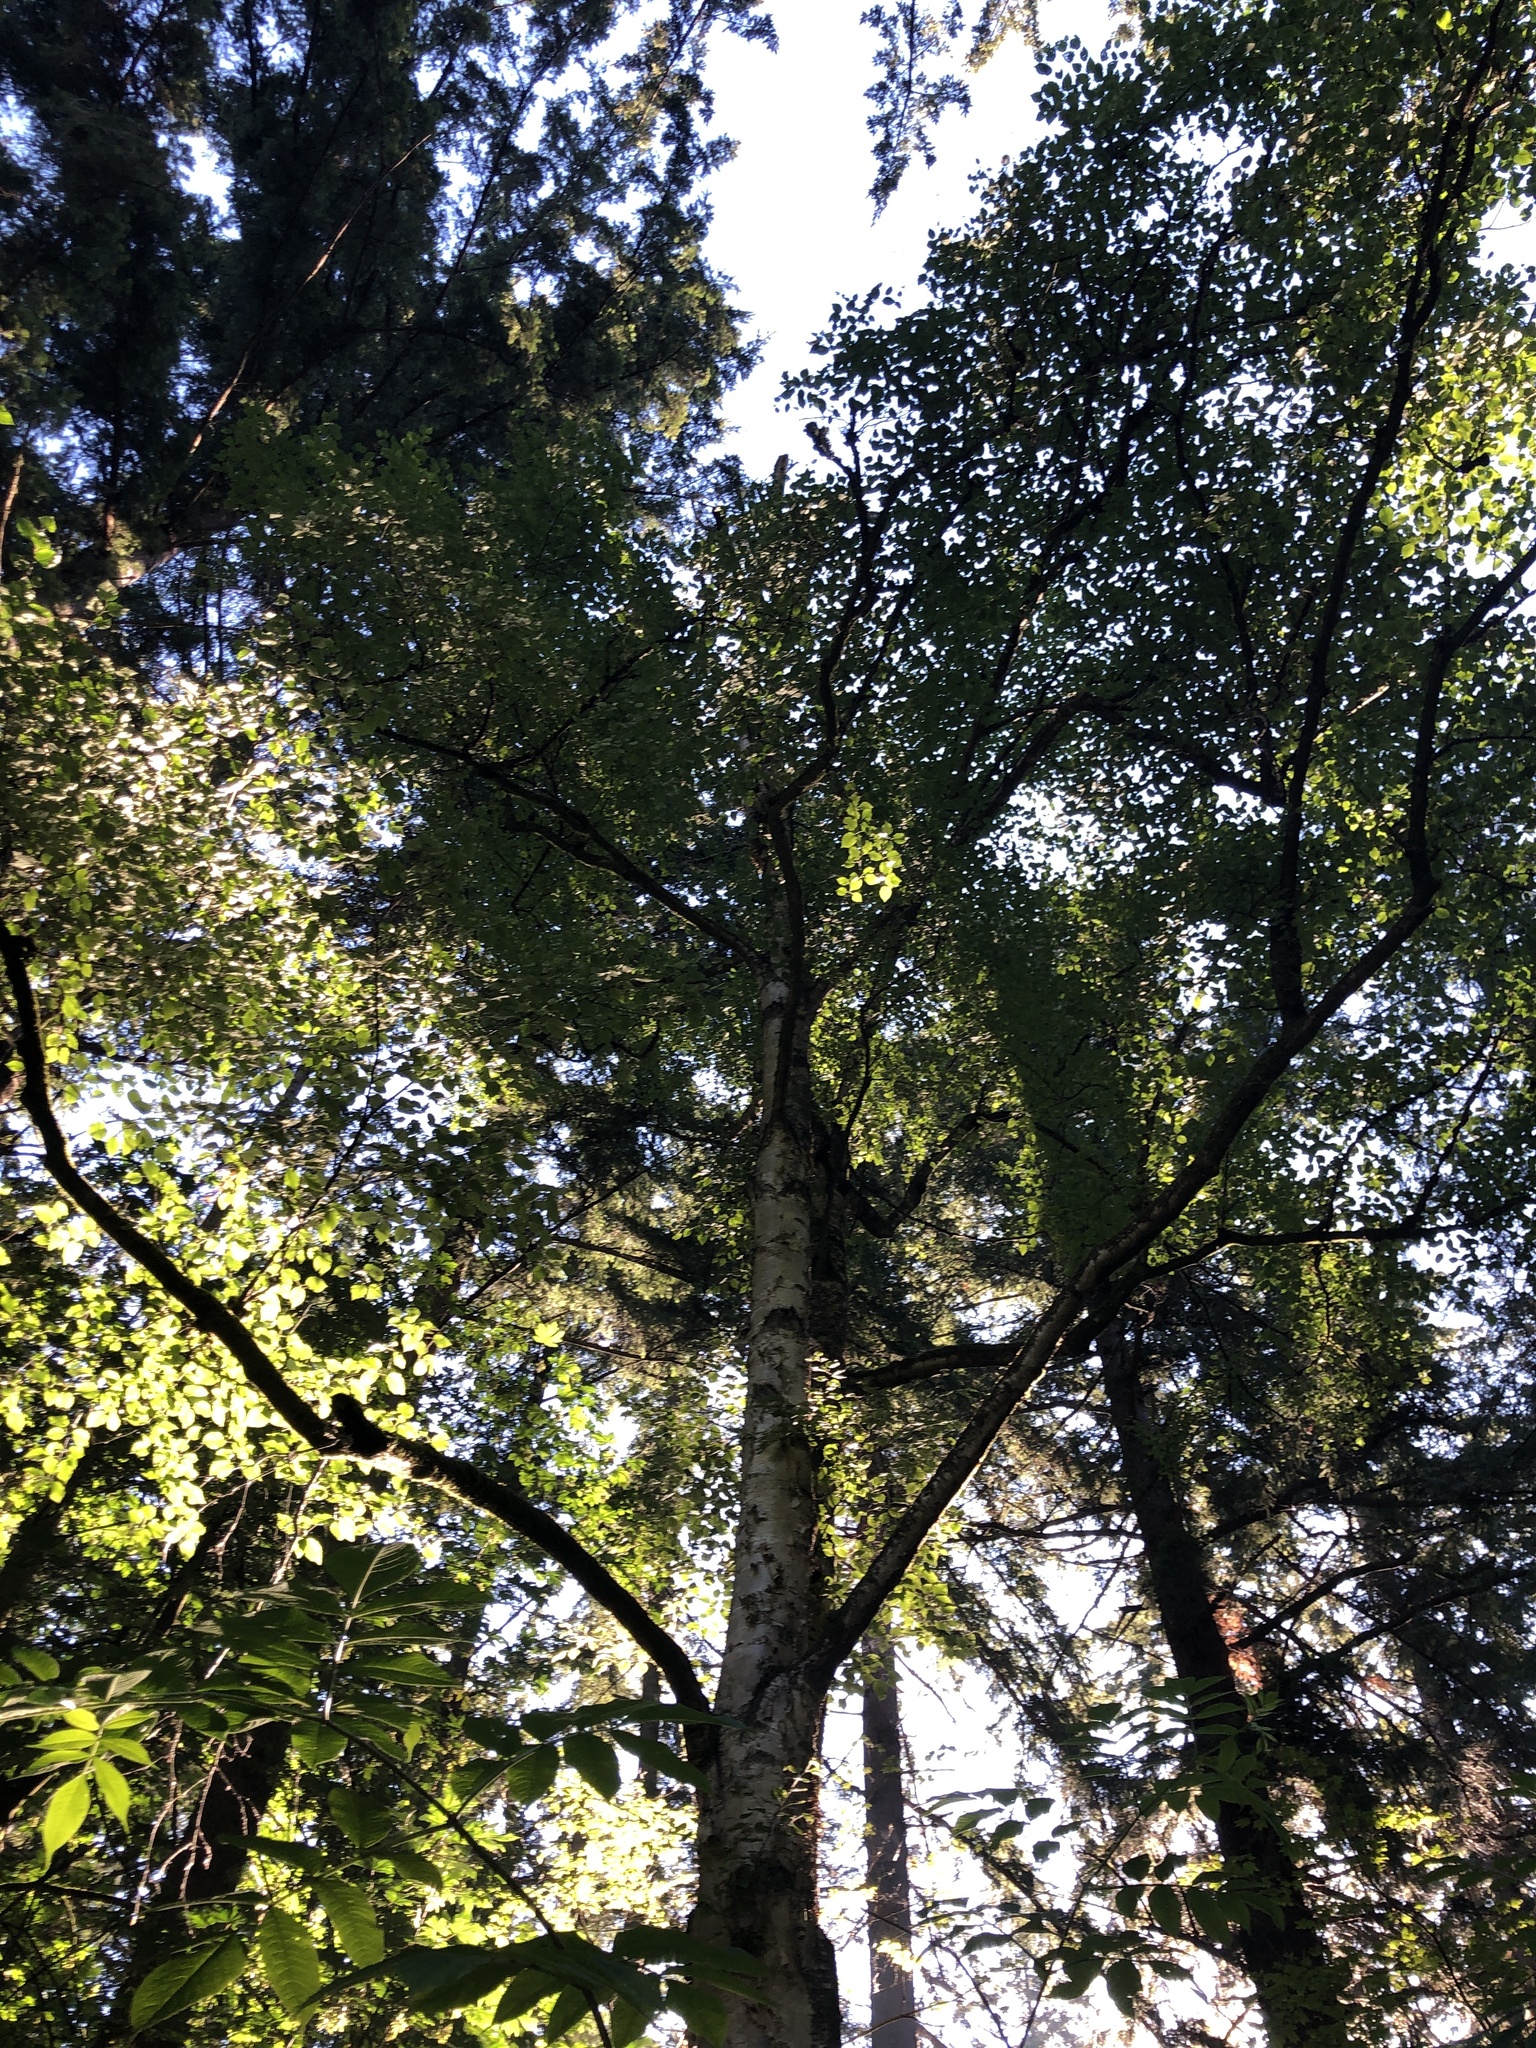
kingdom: Plantae
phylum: Tracheophyta
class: Magnoliopsida
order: Fagales
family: Betulaceae
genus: Betula
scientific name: Betula papyrifera
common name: Paper birch
